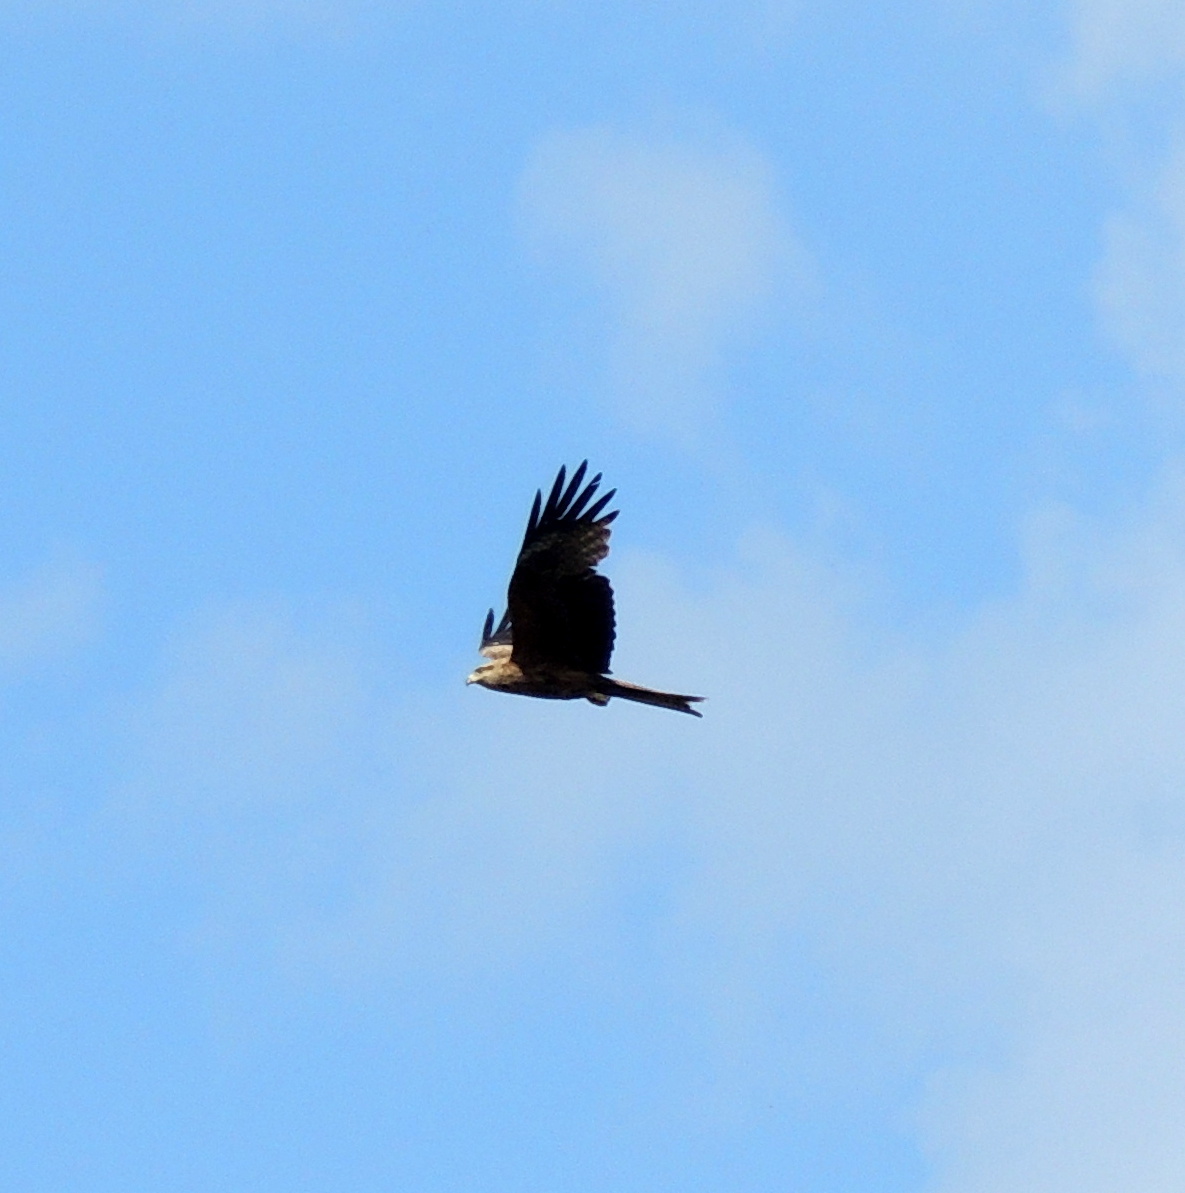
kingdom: Animalia
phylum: Chordata
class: Aves
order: Accipitriformes
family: Accipitridae
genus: Milvus
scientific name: Milvus migrans
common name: Black kite
